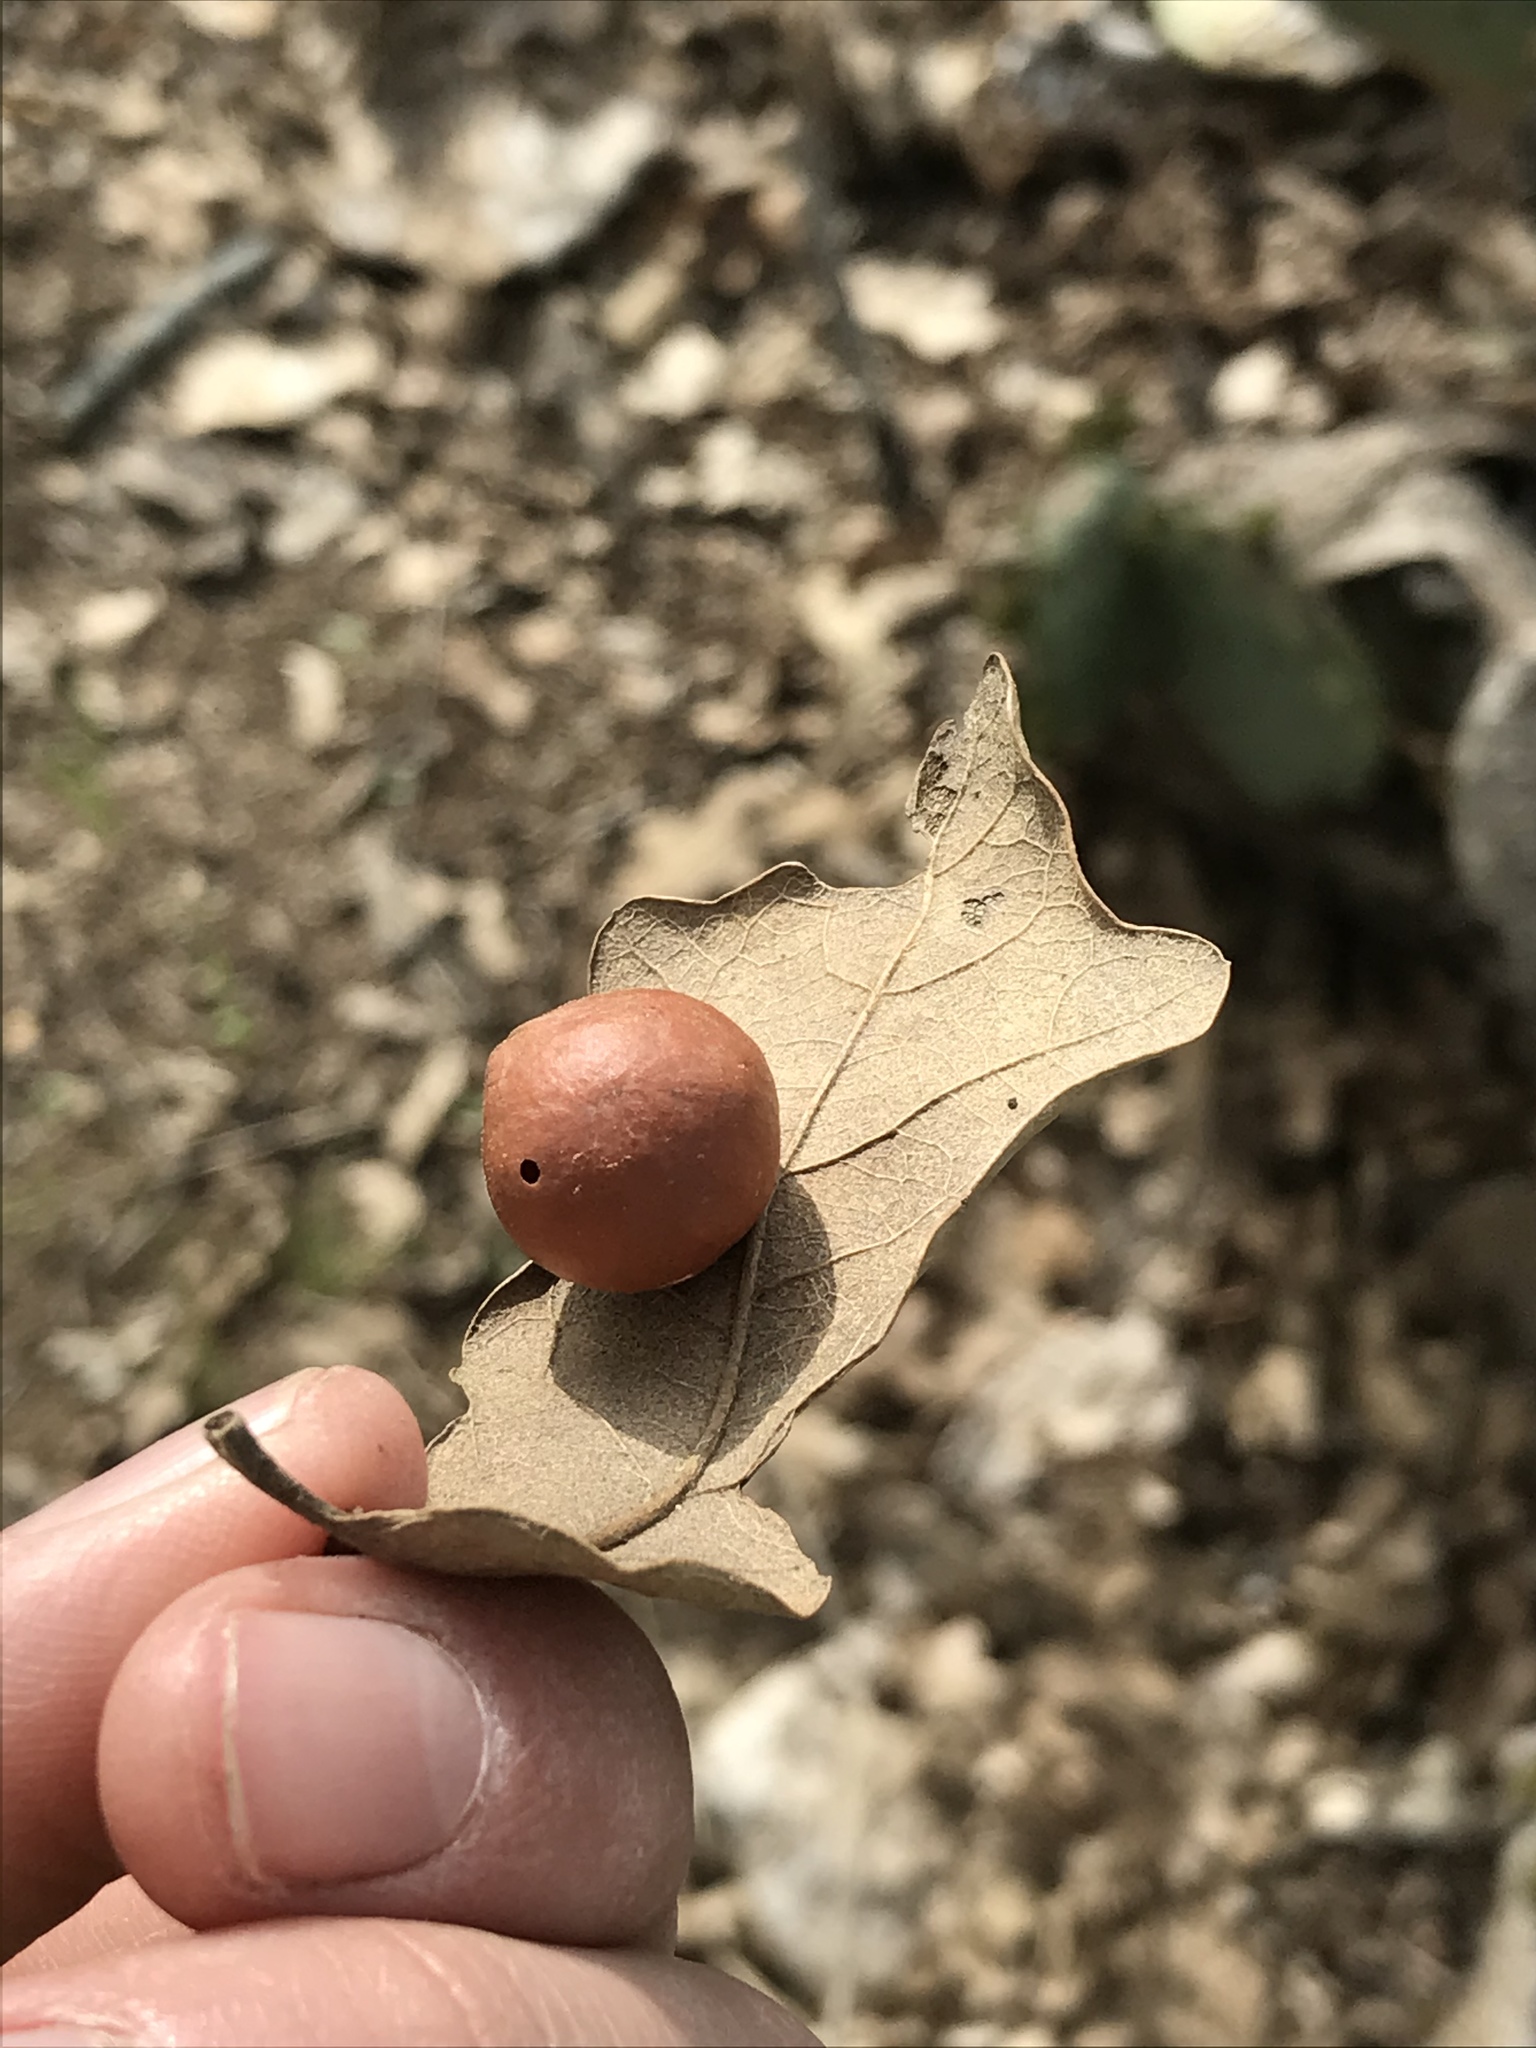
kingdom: Animalia
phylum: Arthropoda
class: Insecta
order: Hymenoptera
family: Cynipidae
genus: Trigonaspis
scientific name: Trigonaspis
